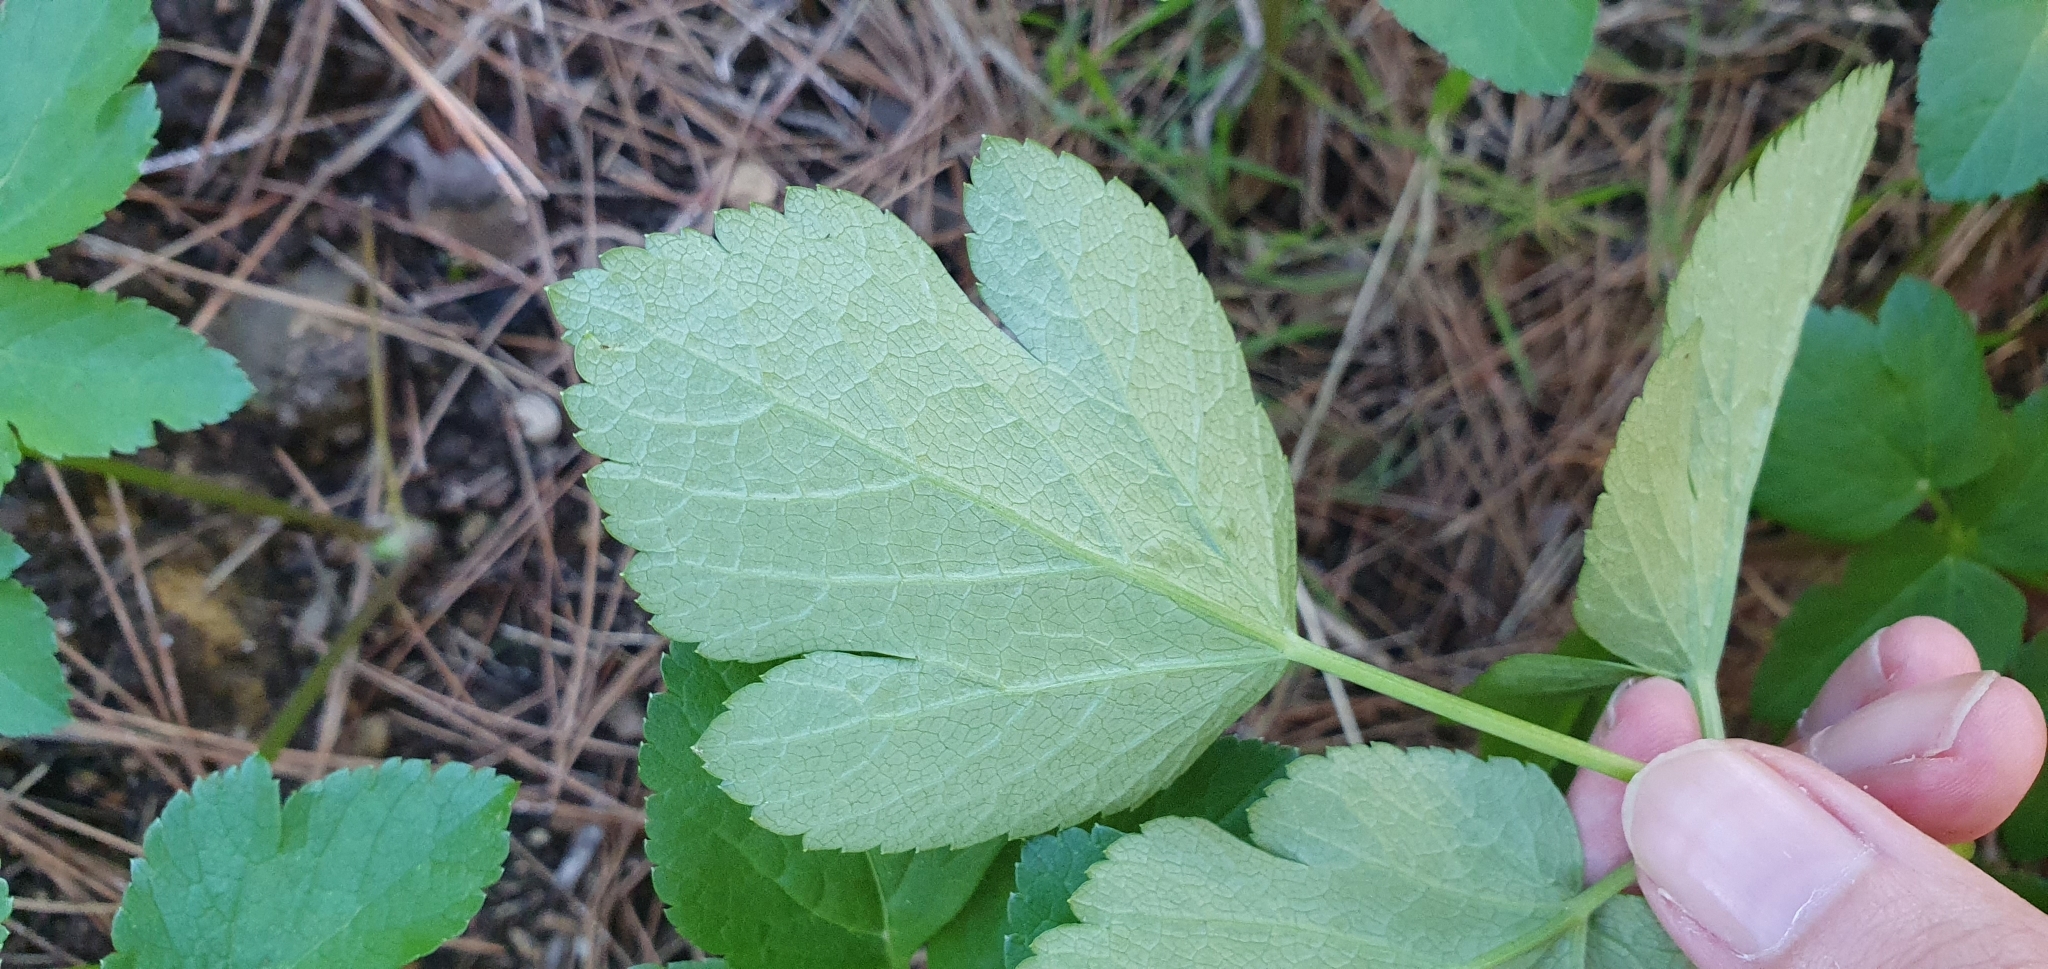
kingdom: Plantae
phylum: Tracheophyta
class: Magnoliopsida
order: Apiales
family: Apiaceae
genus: Smyrnium
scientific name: Smyrnium olusatrum
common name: Alexanders
